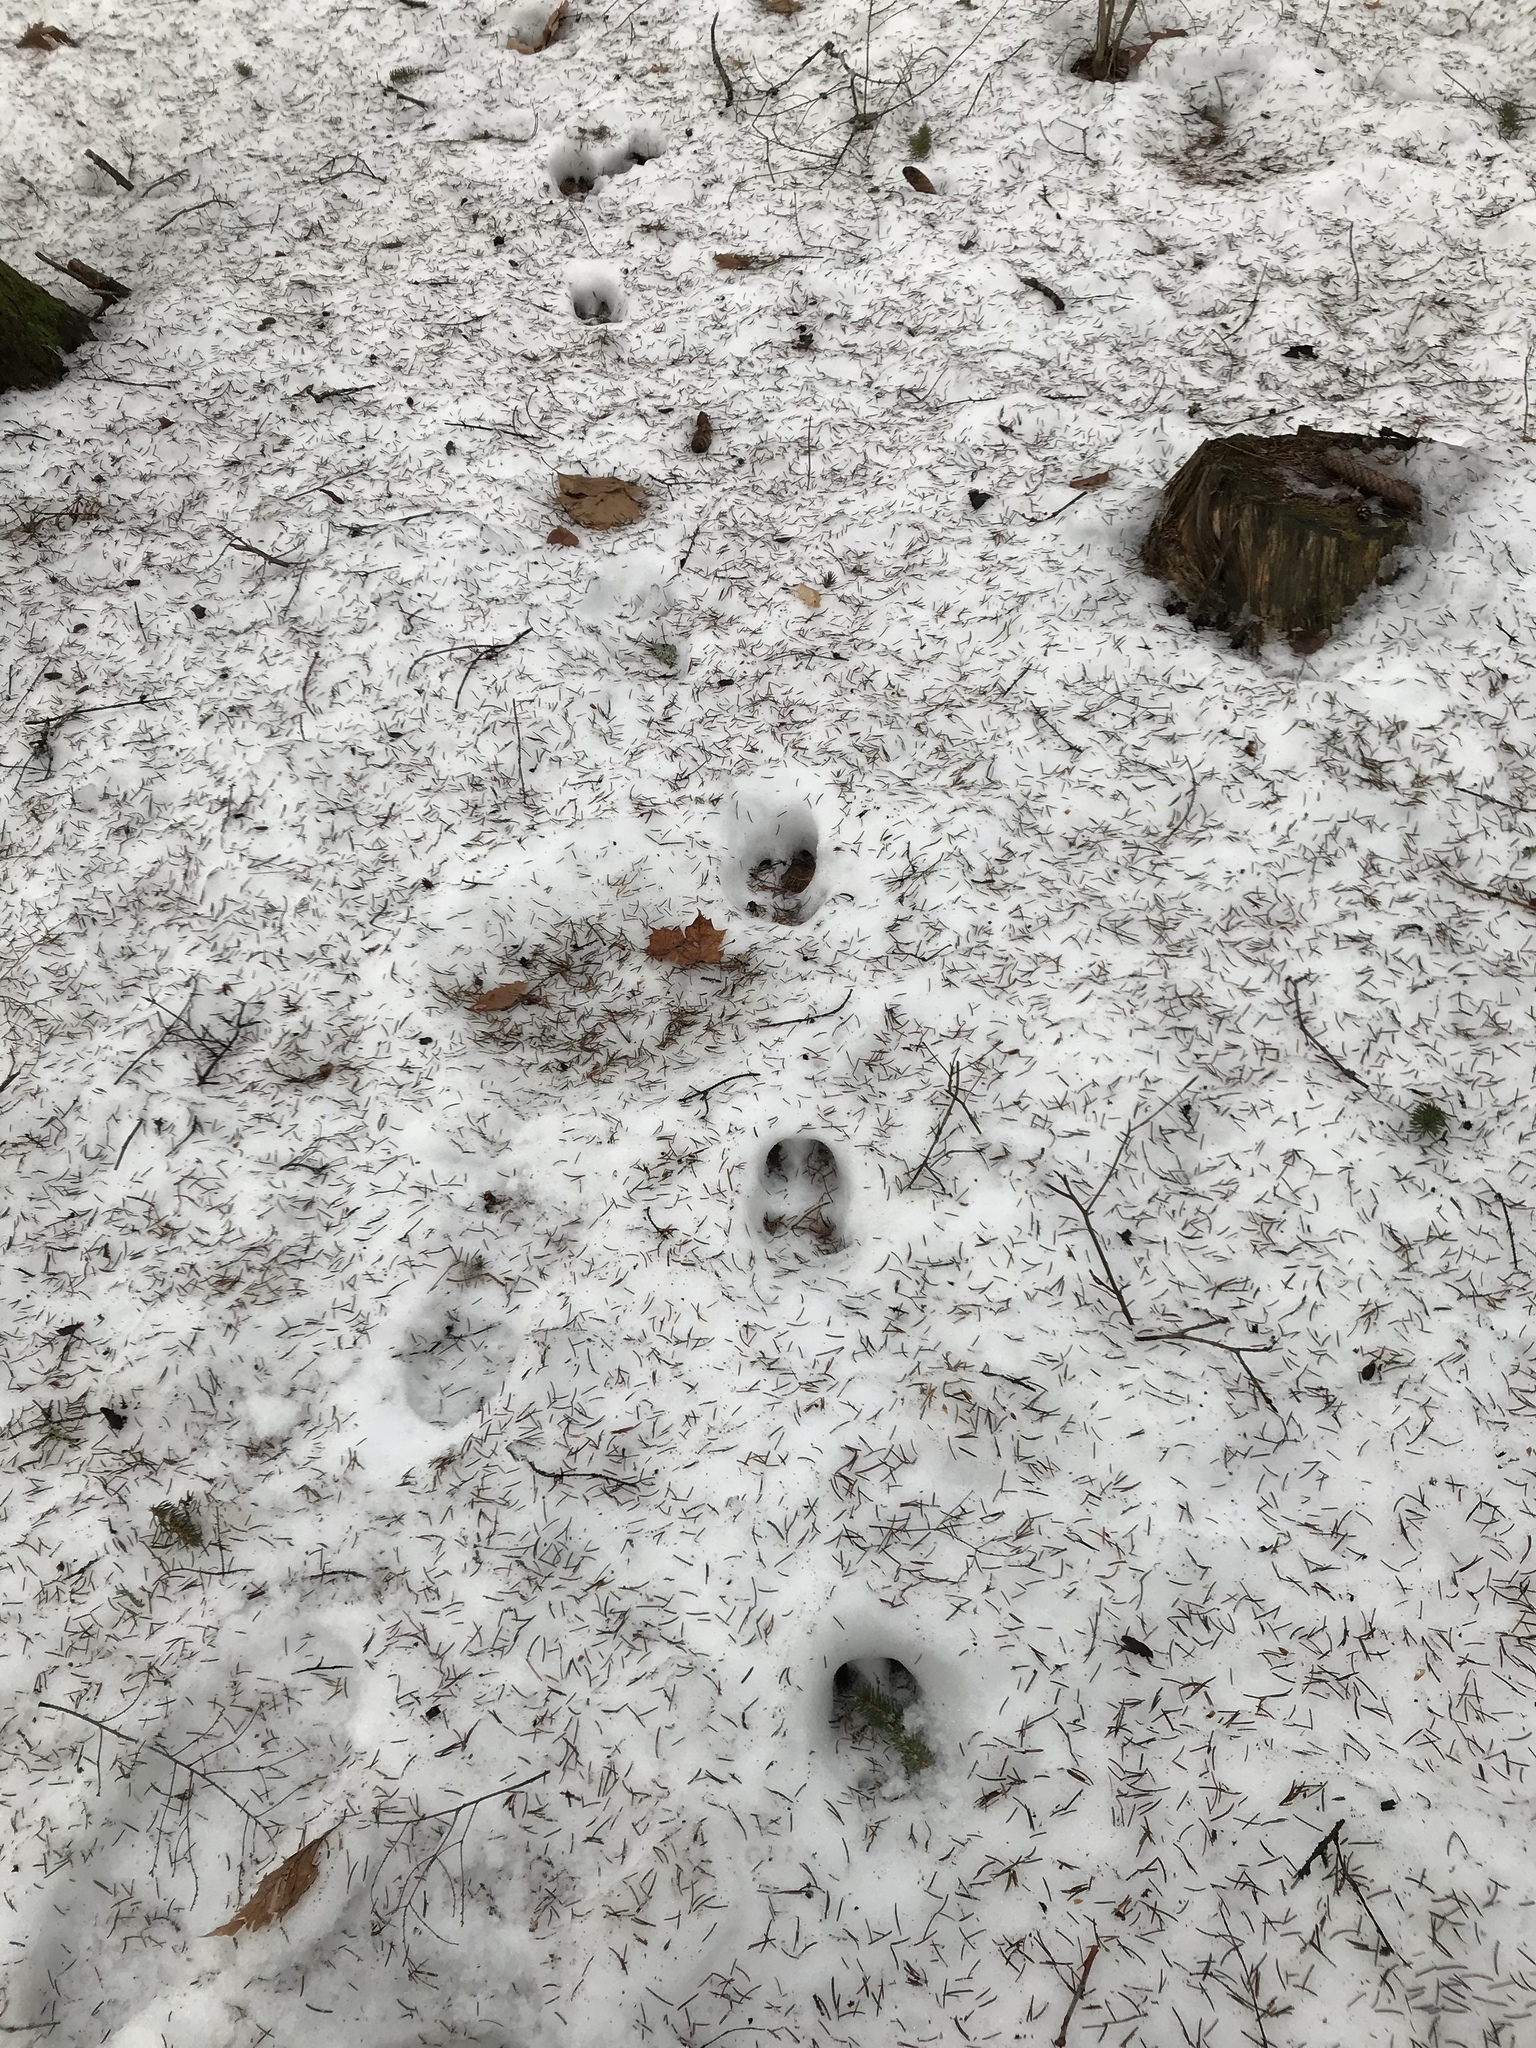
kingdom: Animalia
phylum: Chordata
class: Mammalia
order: Artiodactyla
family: Cervidae
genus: Alces
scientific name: Alces alces
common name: Moose
